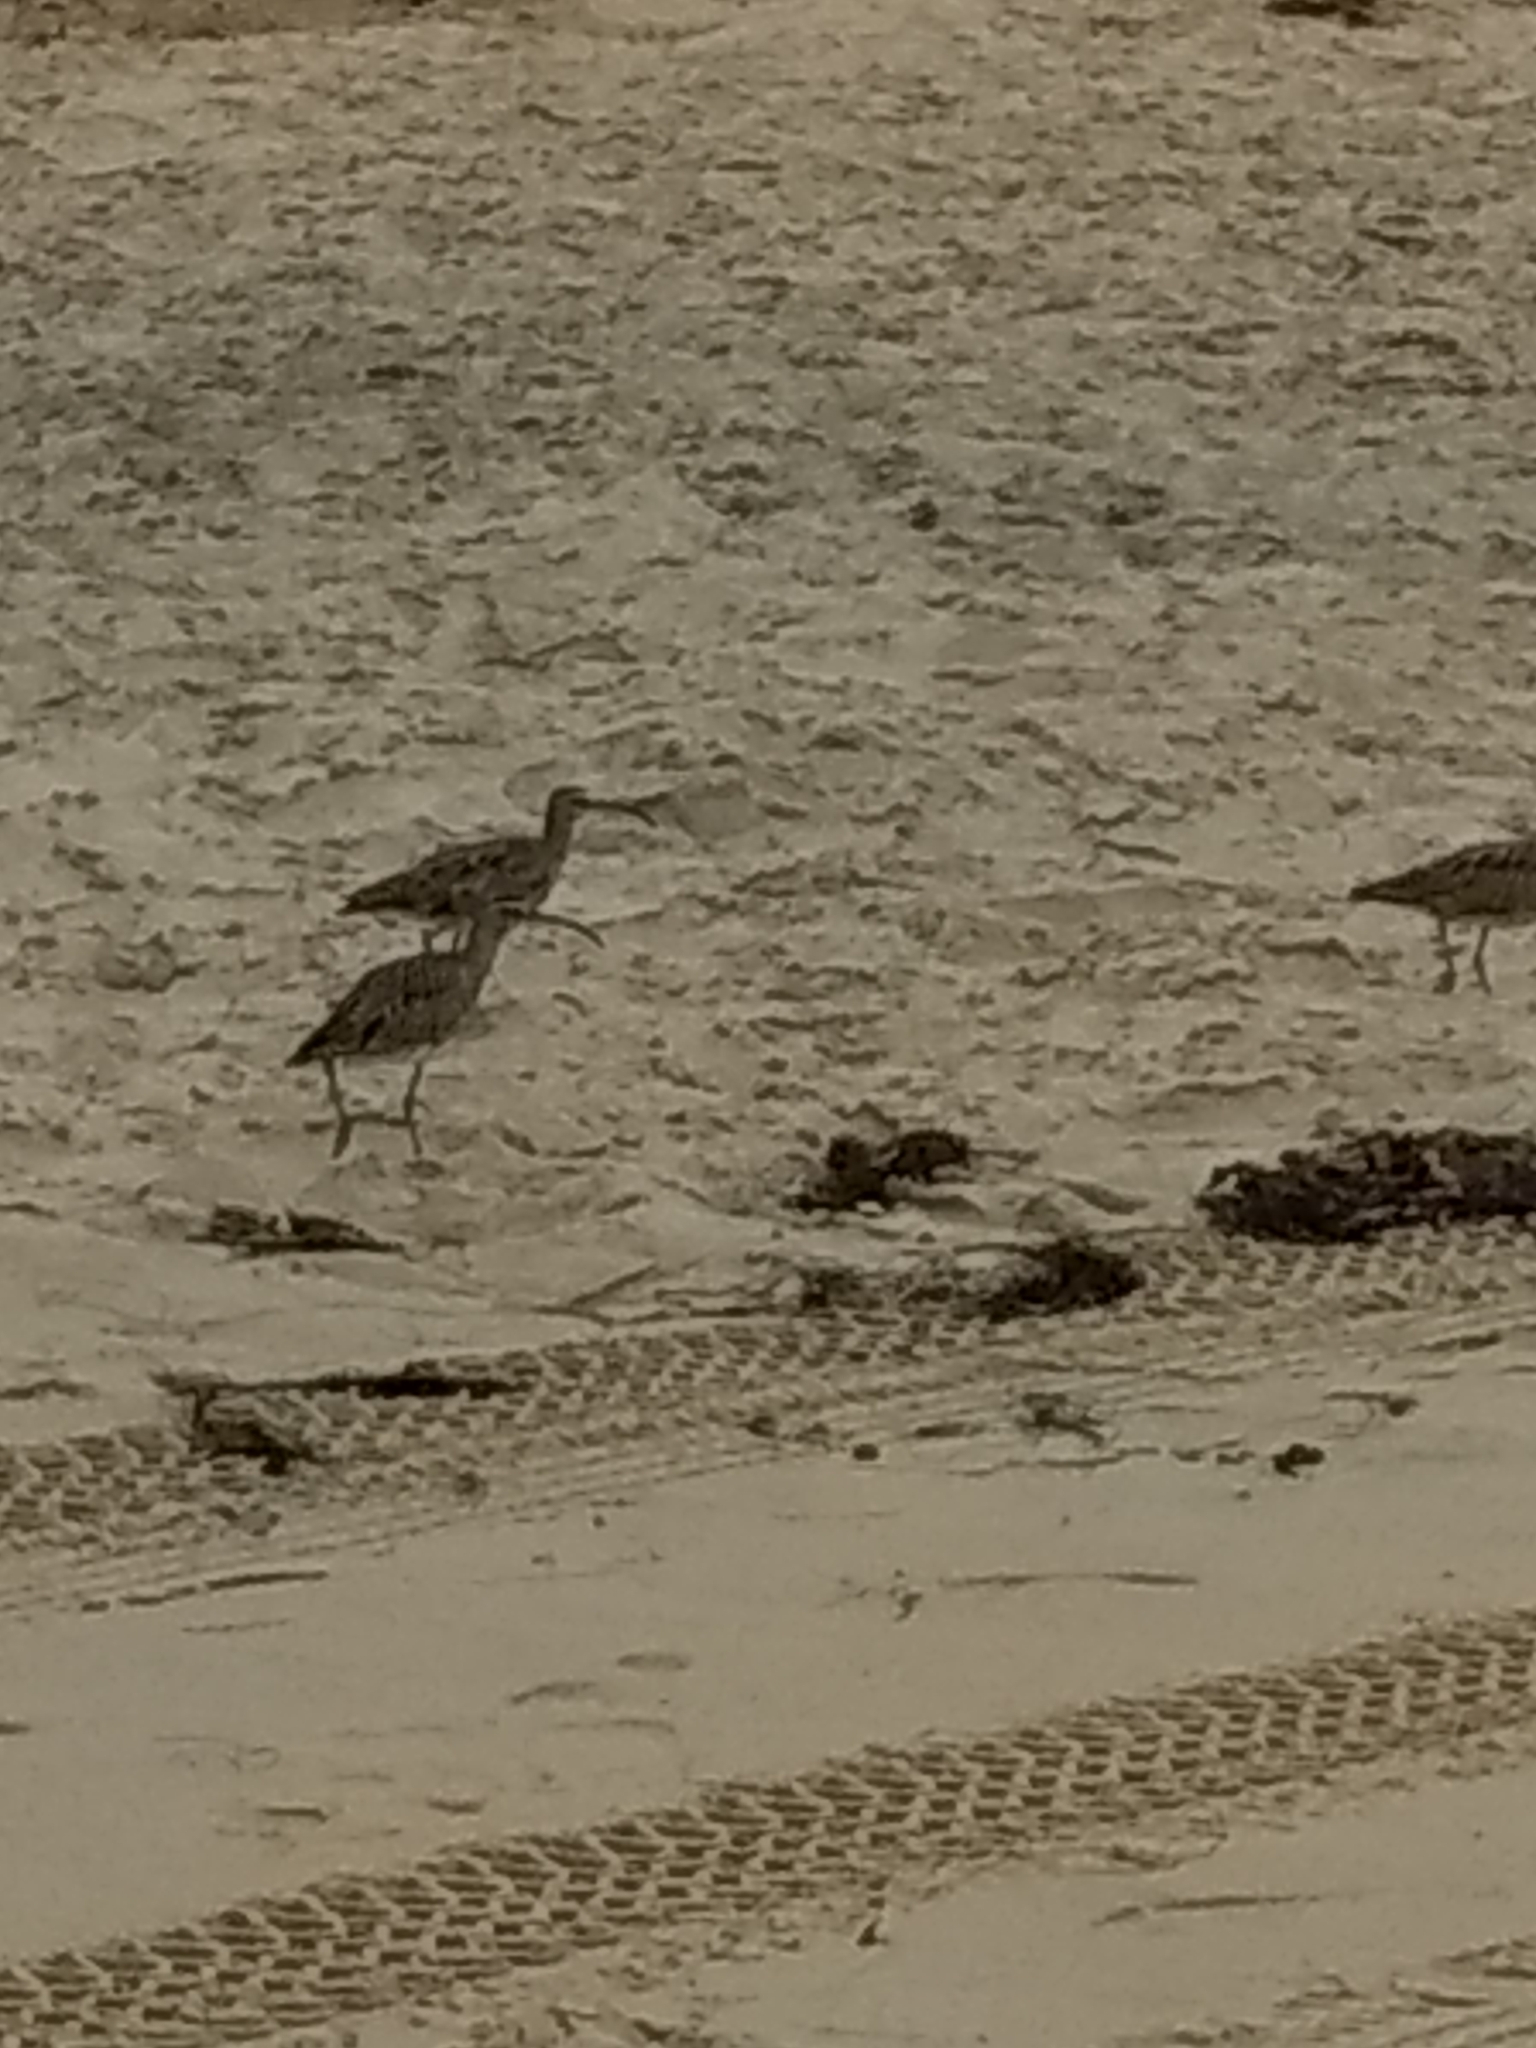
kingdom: Animalia
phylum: Chordata
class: Aves
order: Charadriiformes
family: Scolopacidae
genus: Numenius
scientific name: Numenius phaeopus
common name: Whimbrel
